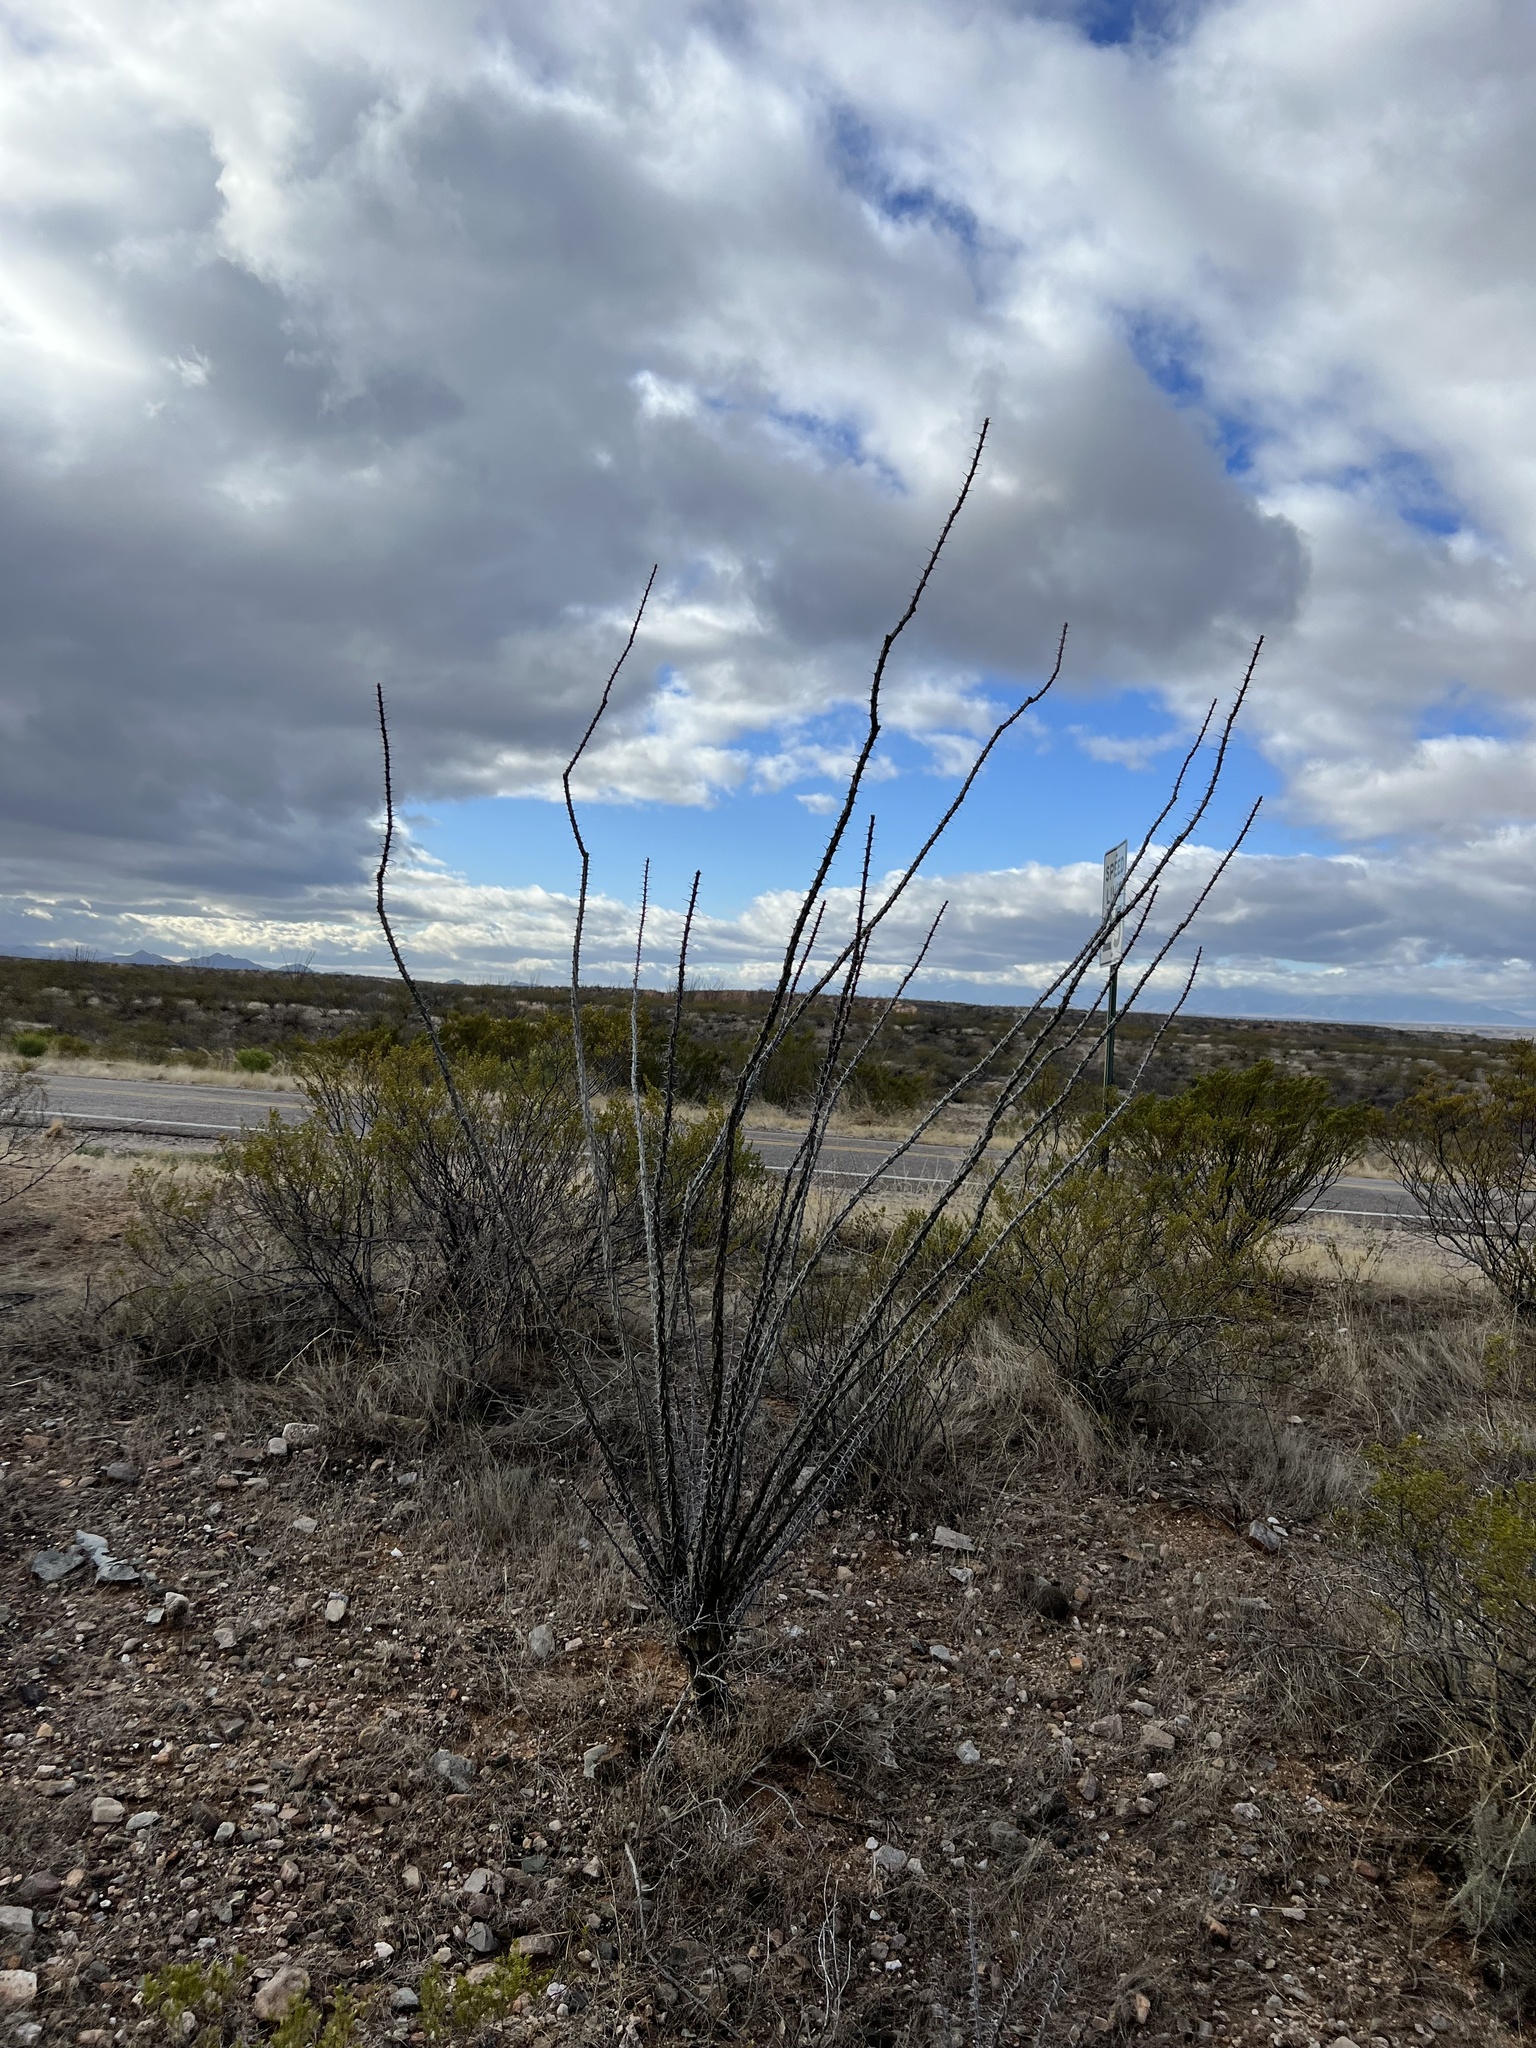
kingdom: Plantae
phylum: Tracheophyta
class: Magnoliopsida
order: Ericales
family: Fouquieriaceae
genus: Fouquieria
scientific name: Fouquieria splendens
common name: Vine-cactus
